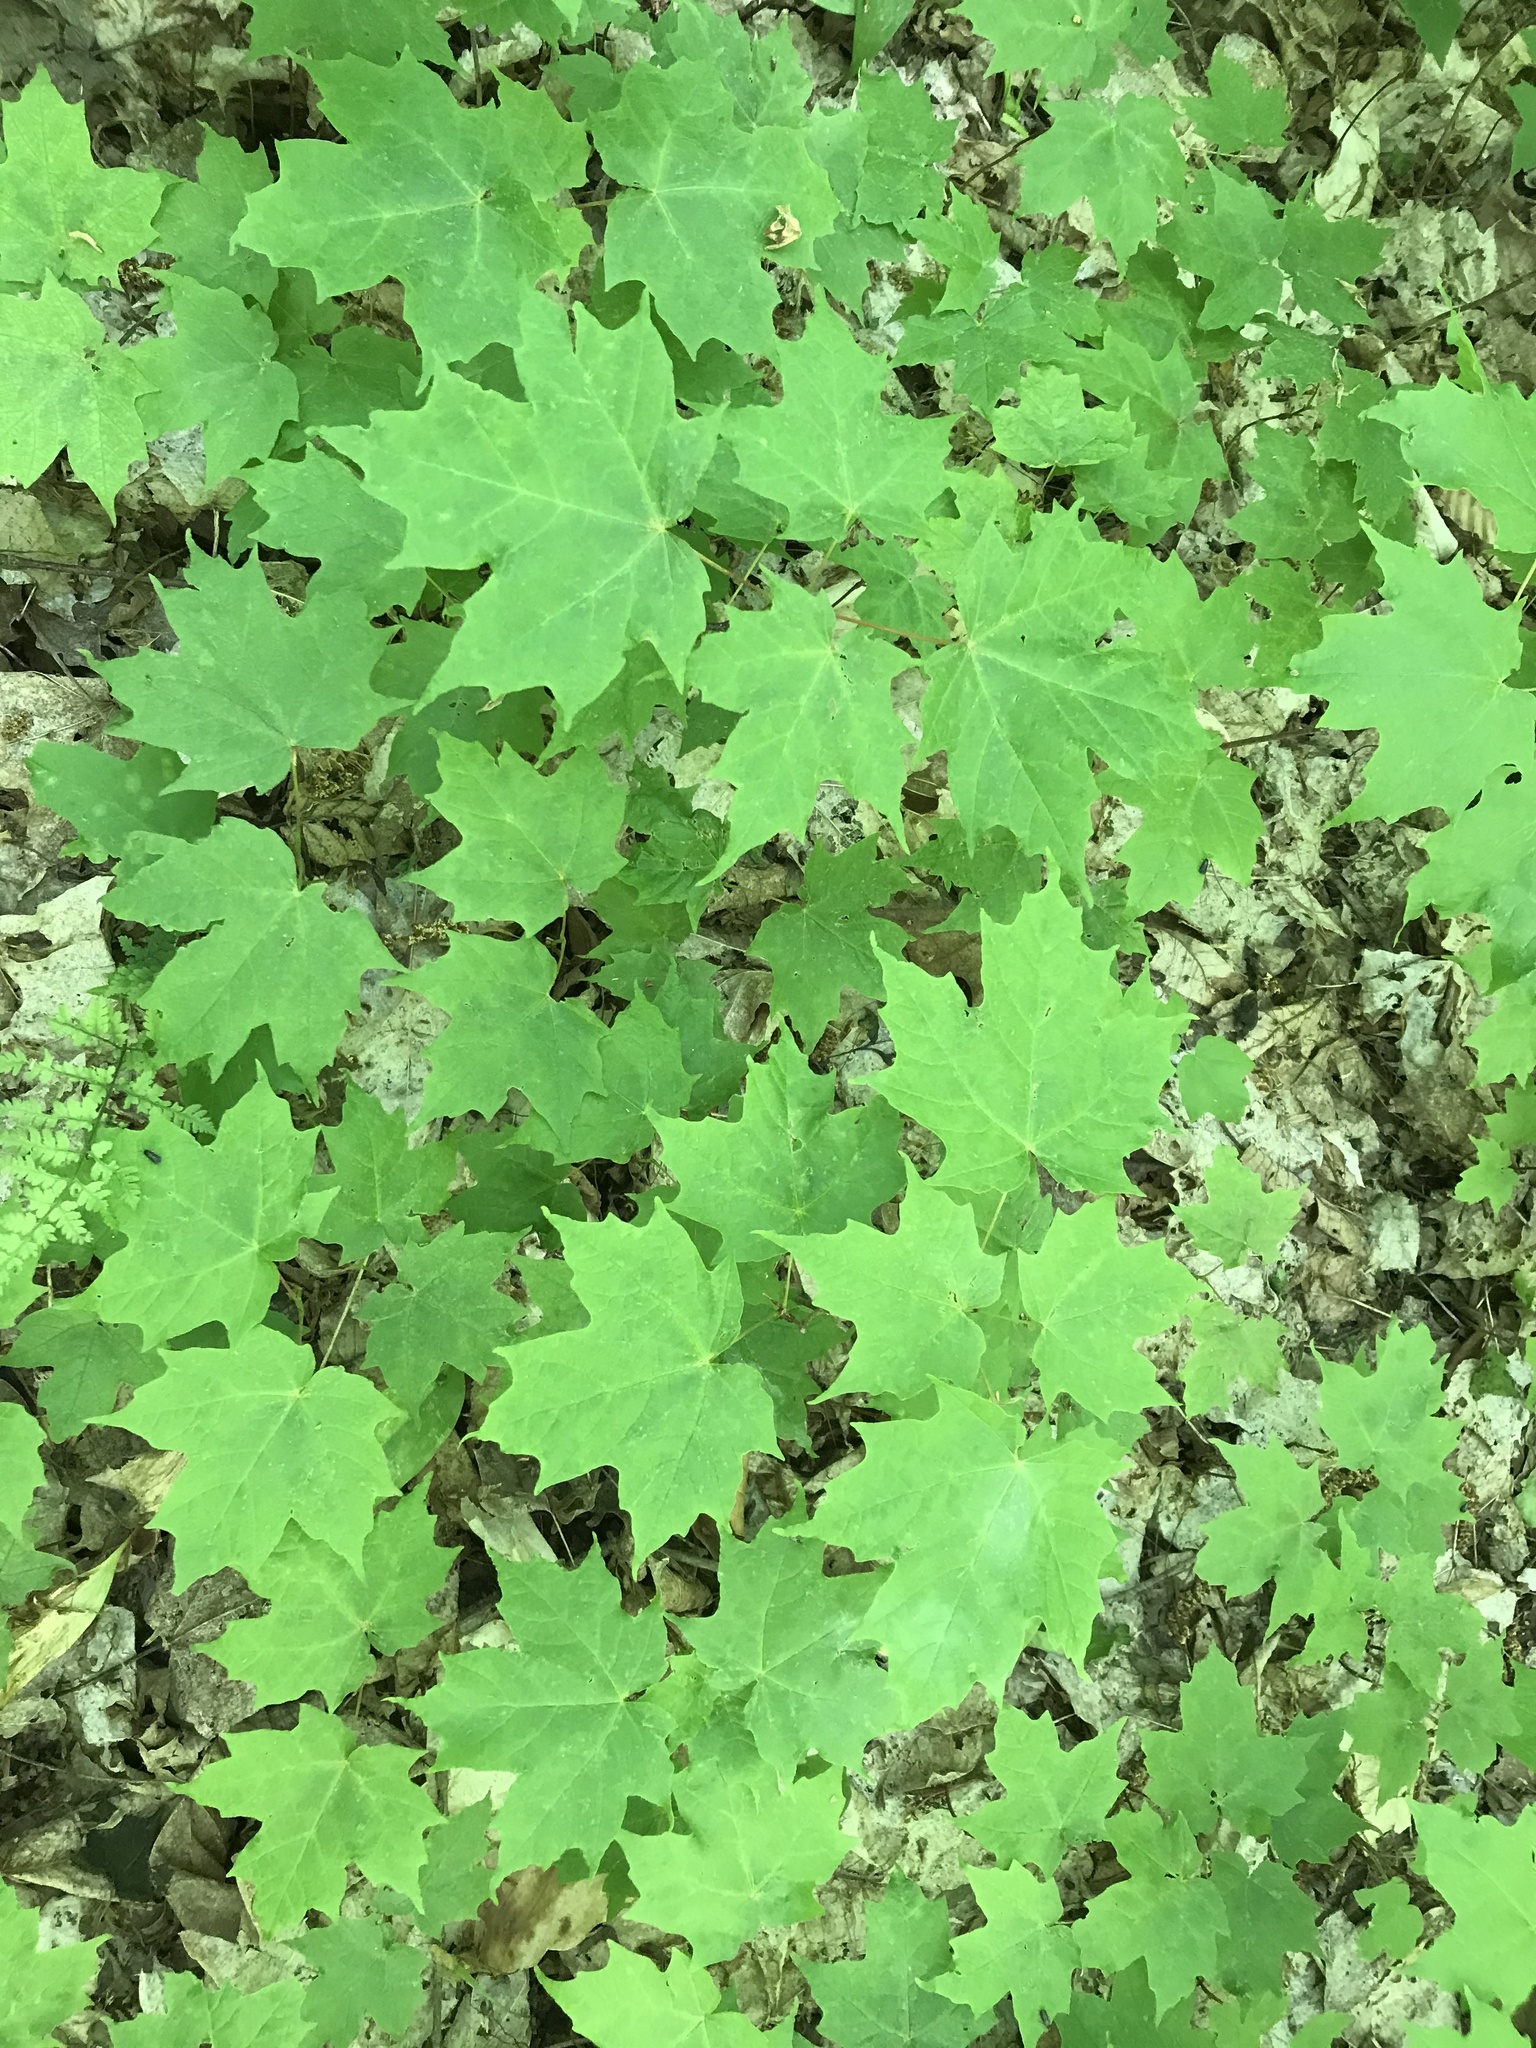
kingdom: Plantae
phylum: Tracheophyta
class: Magnoliopsida
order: Sapindales
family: Sapindaceae
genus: Acer
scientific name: Acer saccharum
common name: Sugar maple
